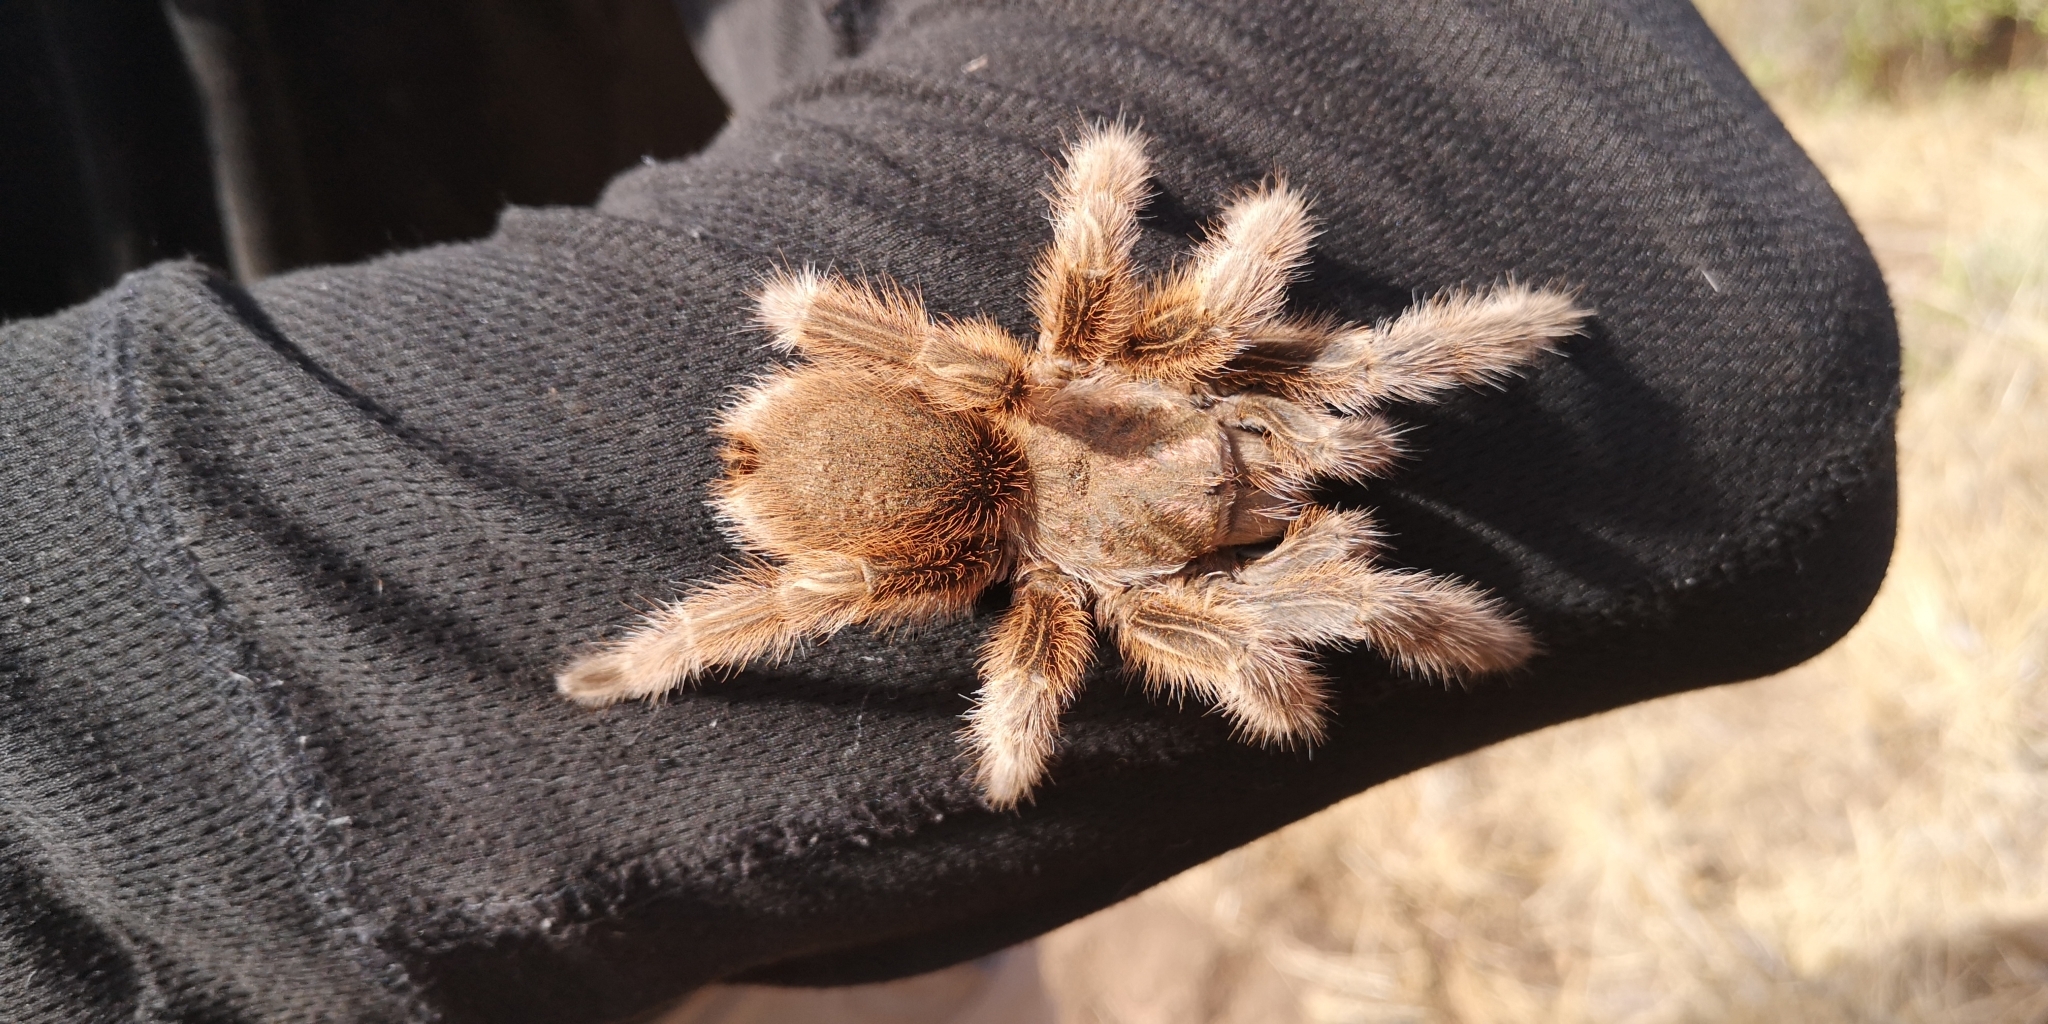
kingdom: Animalia
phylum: Arthropoda
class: Arachnida
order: Araneae
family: Theraphosidae
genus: Grammostola
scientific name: Grammostola rosea
